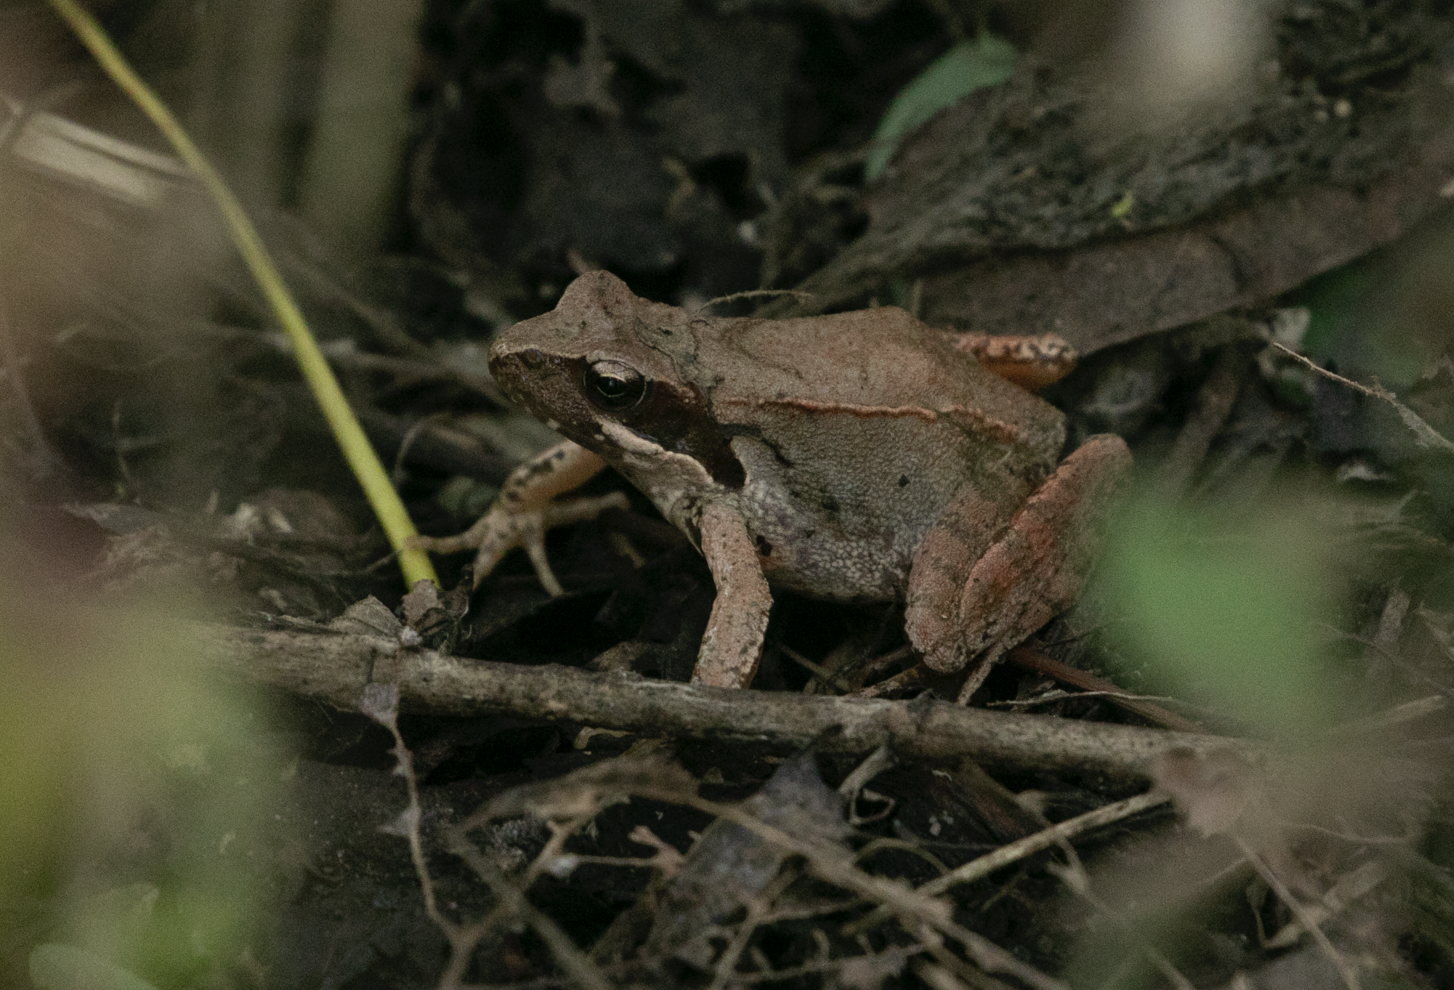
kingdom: Animalia
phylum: Chordata
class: Amphibia
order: Anura
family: Ranidae
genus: Rana
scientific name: Rana latastei
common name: Italian agile frog
